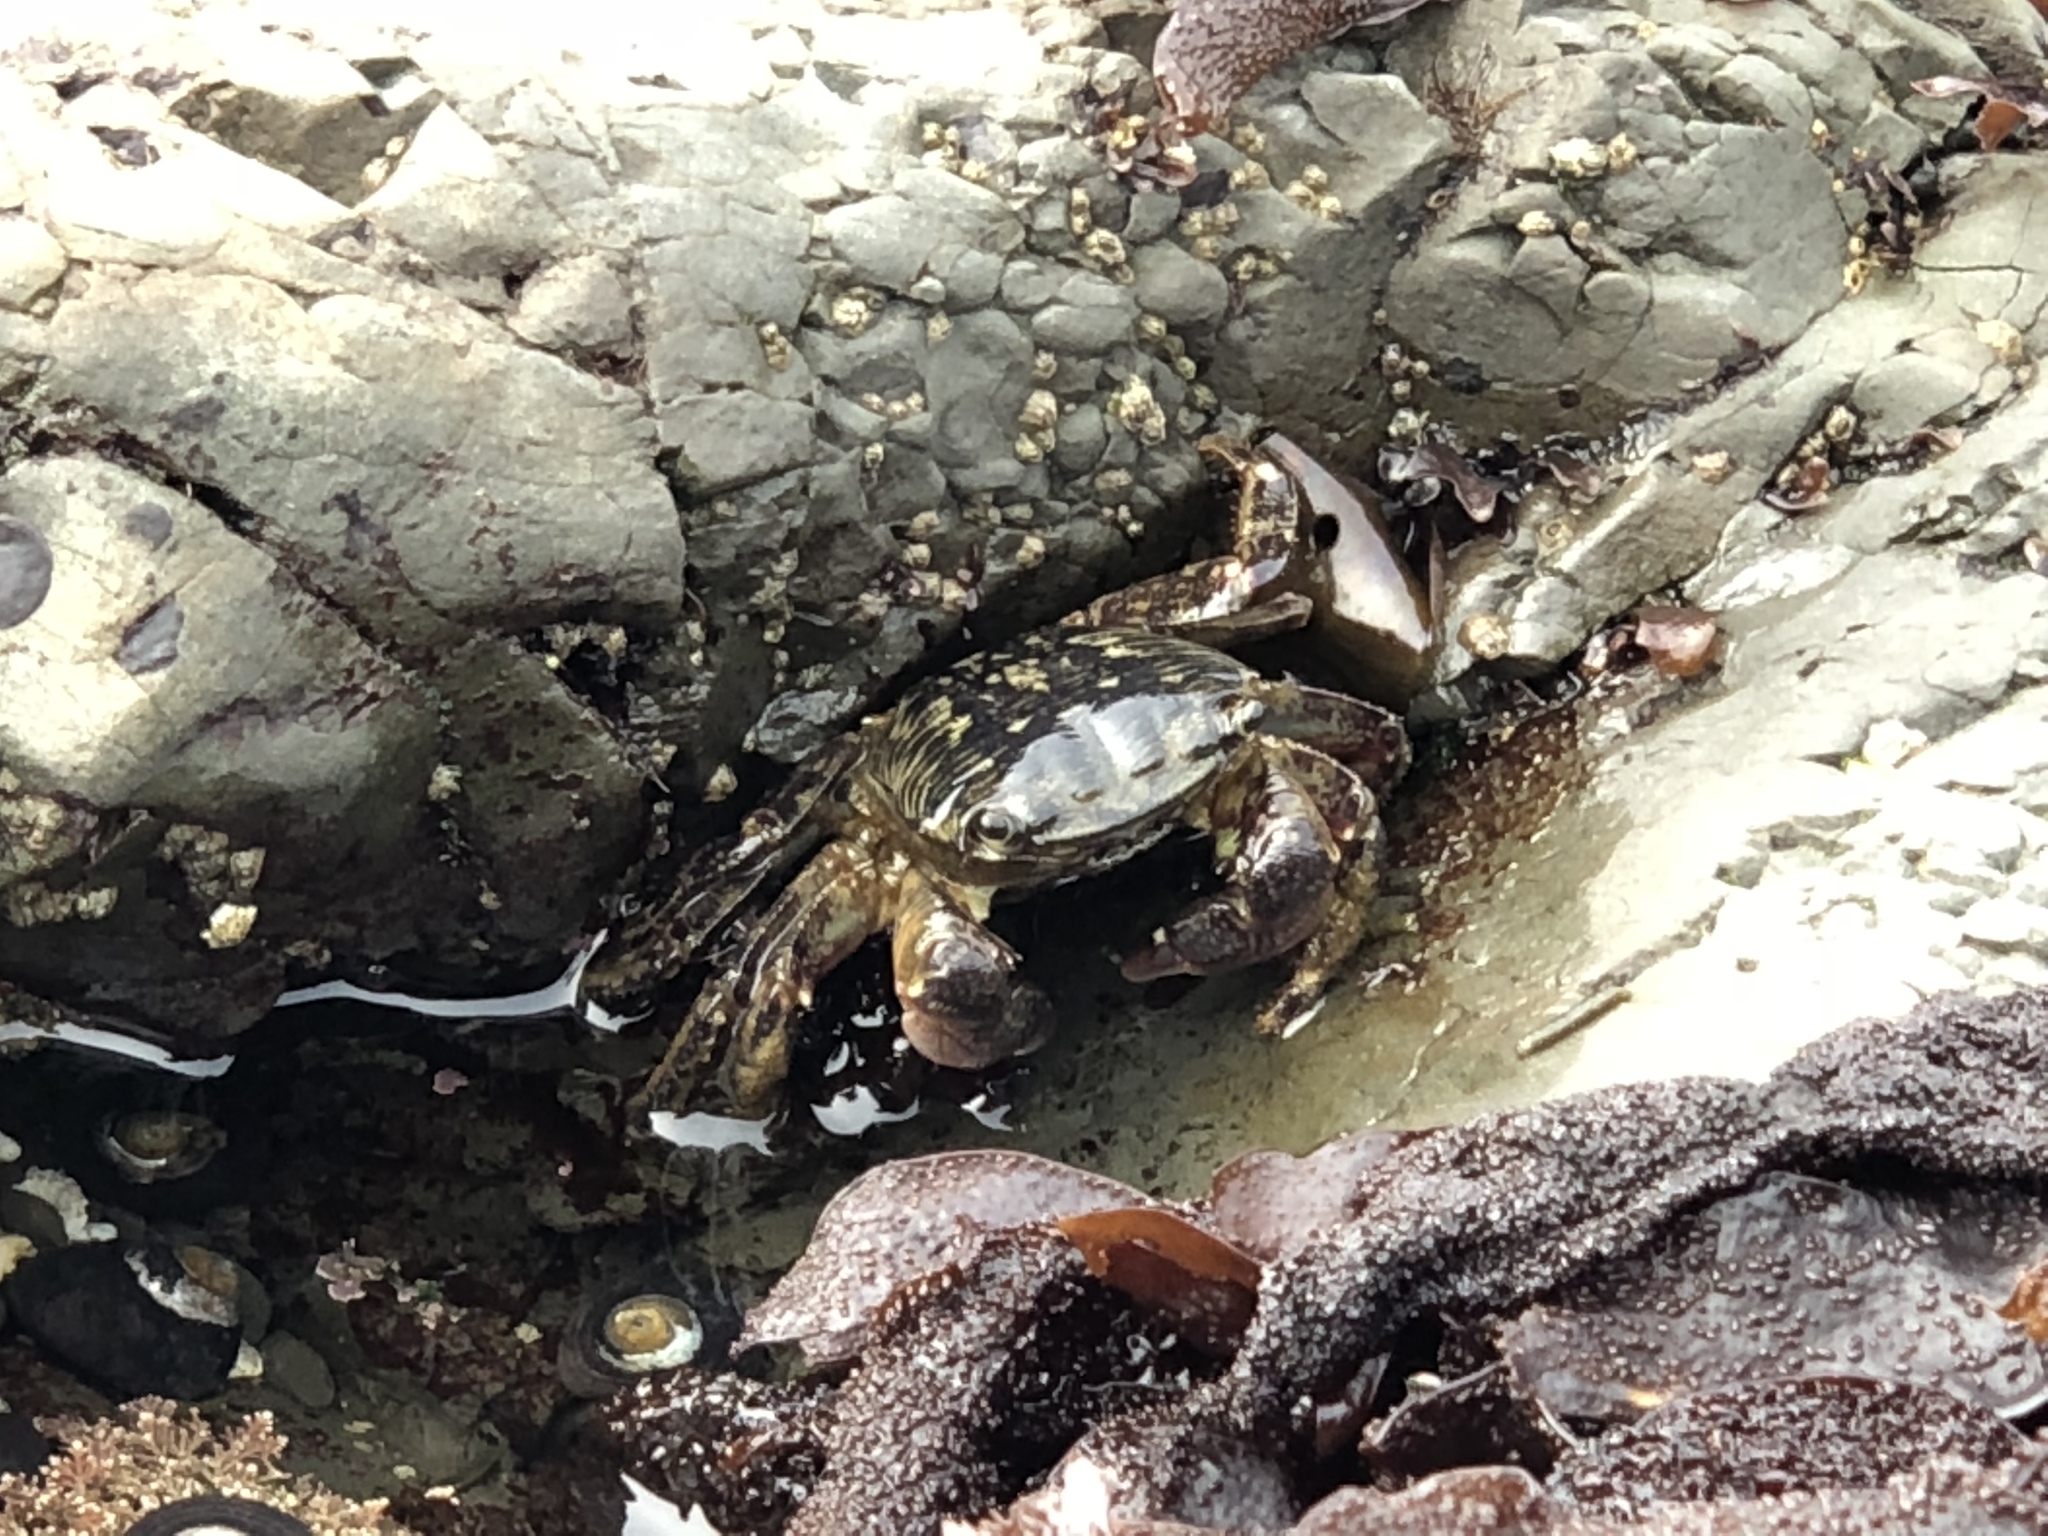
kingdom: Animalia
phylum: Arthropoda
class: Malacostraca
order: Decapoda
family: Grapsidae
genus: Pachygrapsus
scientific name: Pachygrapsus crassipes
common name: Striped shore crab
